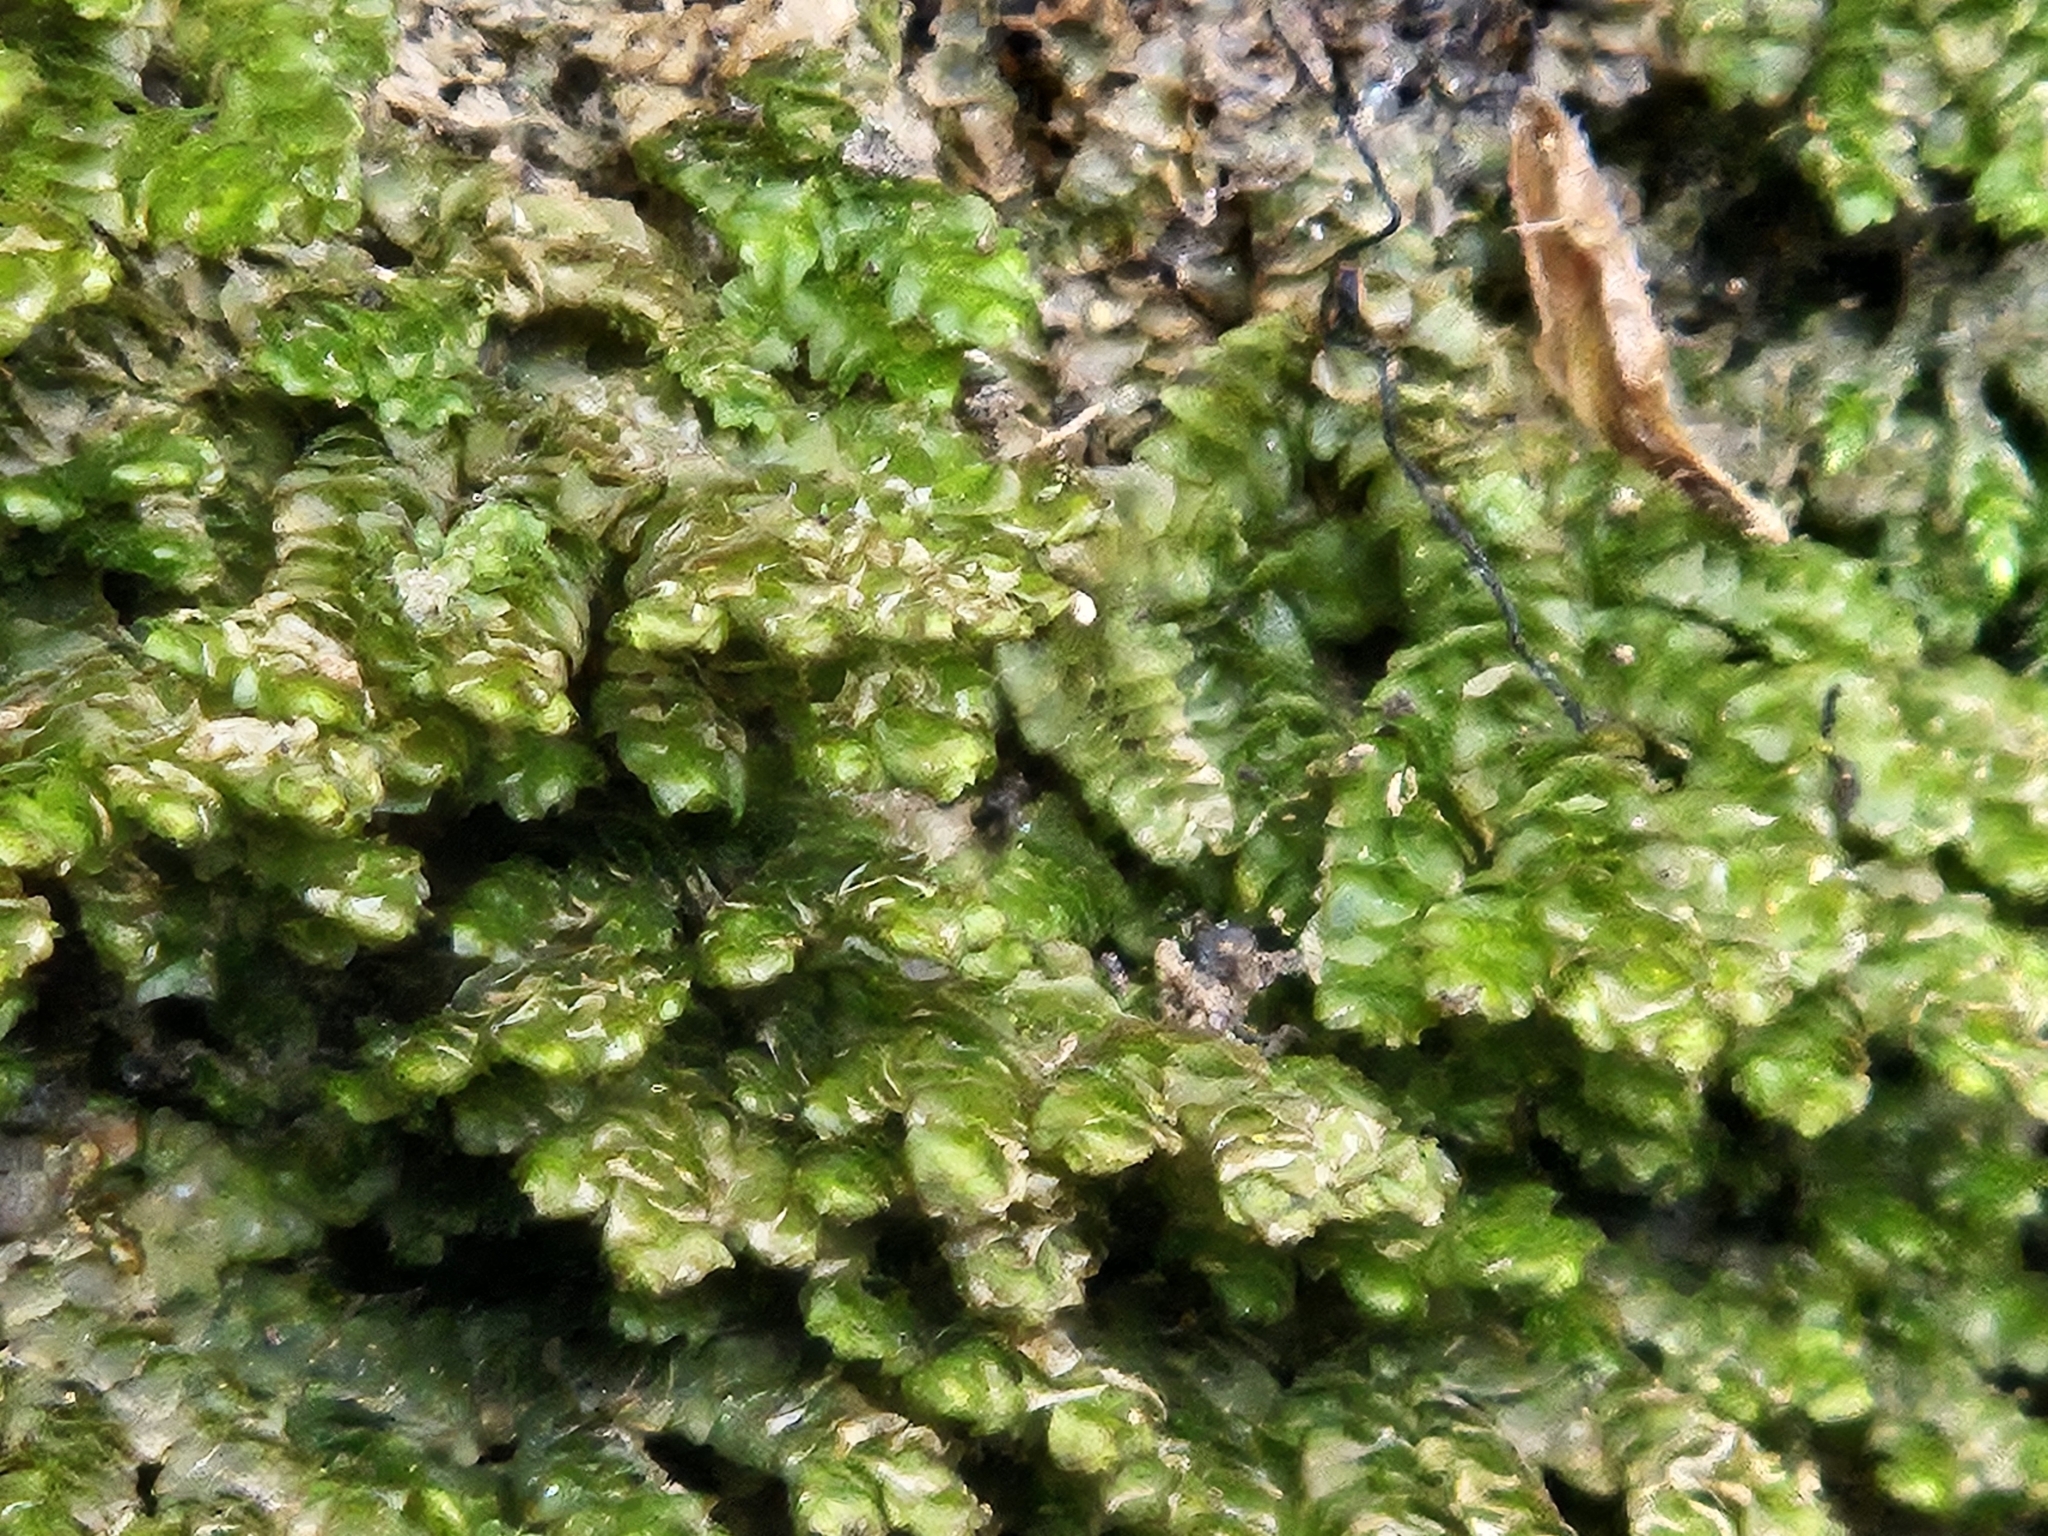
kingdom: Plantae
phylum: Marchantiophyta
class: Jungermanniopsida
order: Porellales
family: Porellaceae
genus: Porella
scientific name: Porella platyphylla
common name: Wall scalewort
